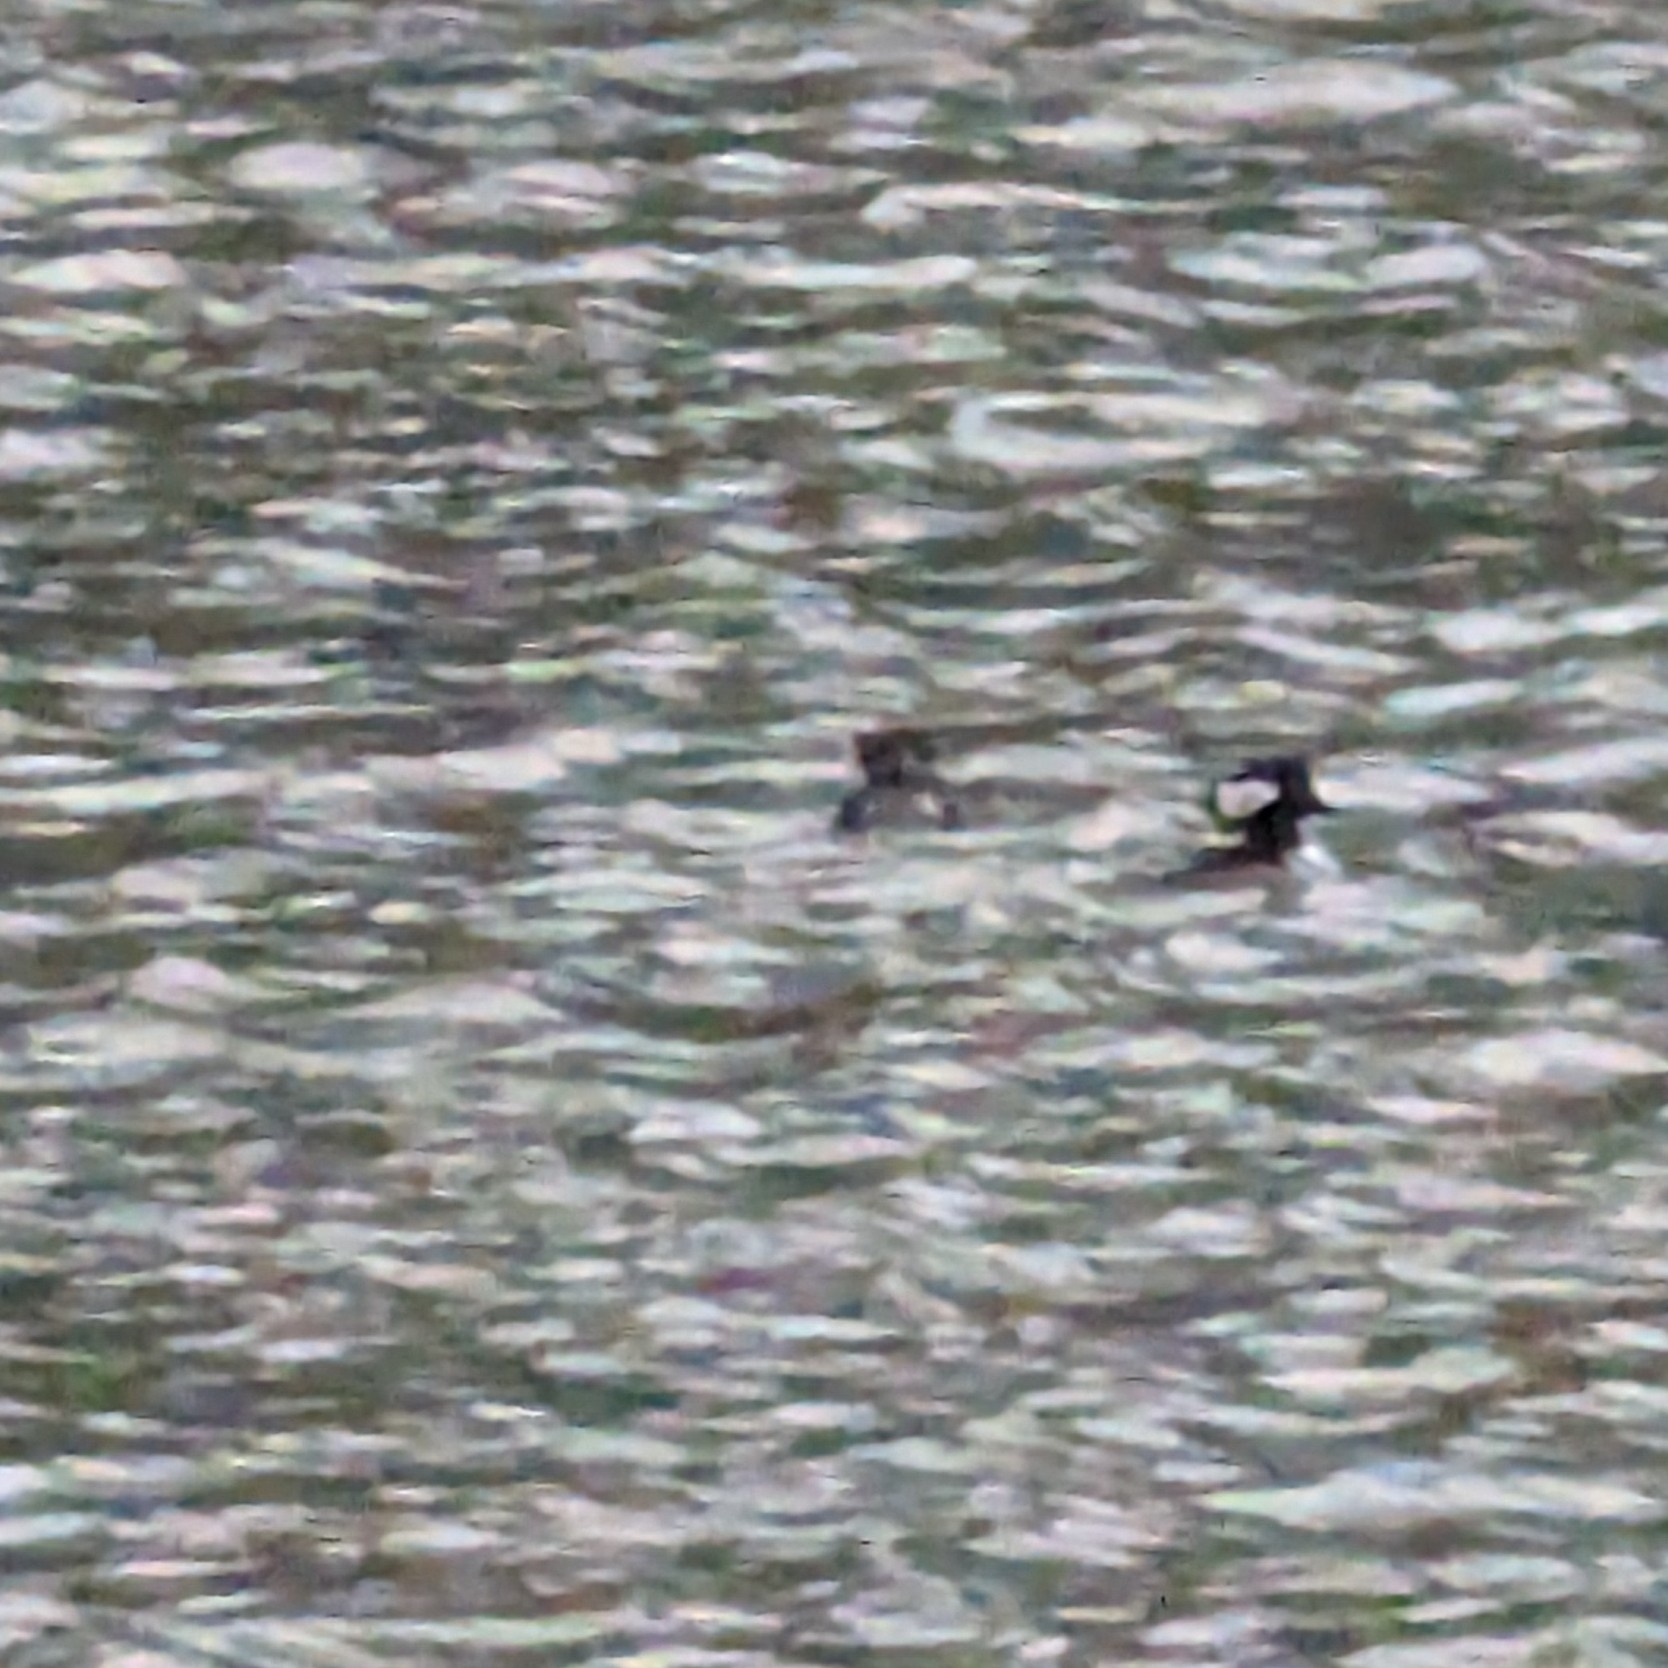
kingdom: Animalia
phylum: Chordata
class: Aves
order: Anseriformes
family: Anatidae
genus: Lophodytes
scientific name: Lophodytes cucullatus
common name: Hooded merganser
